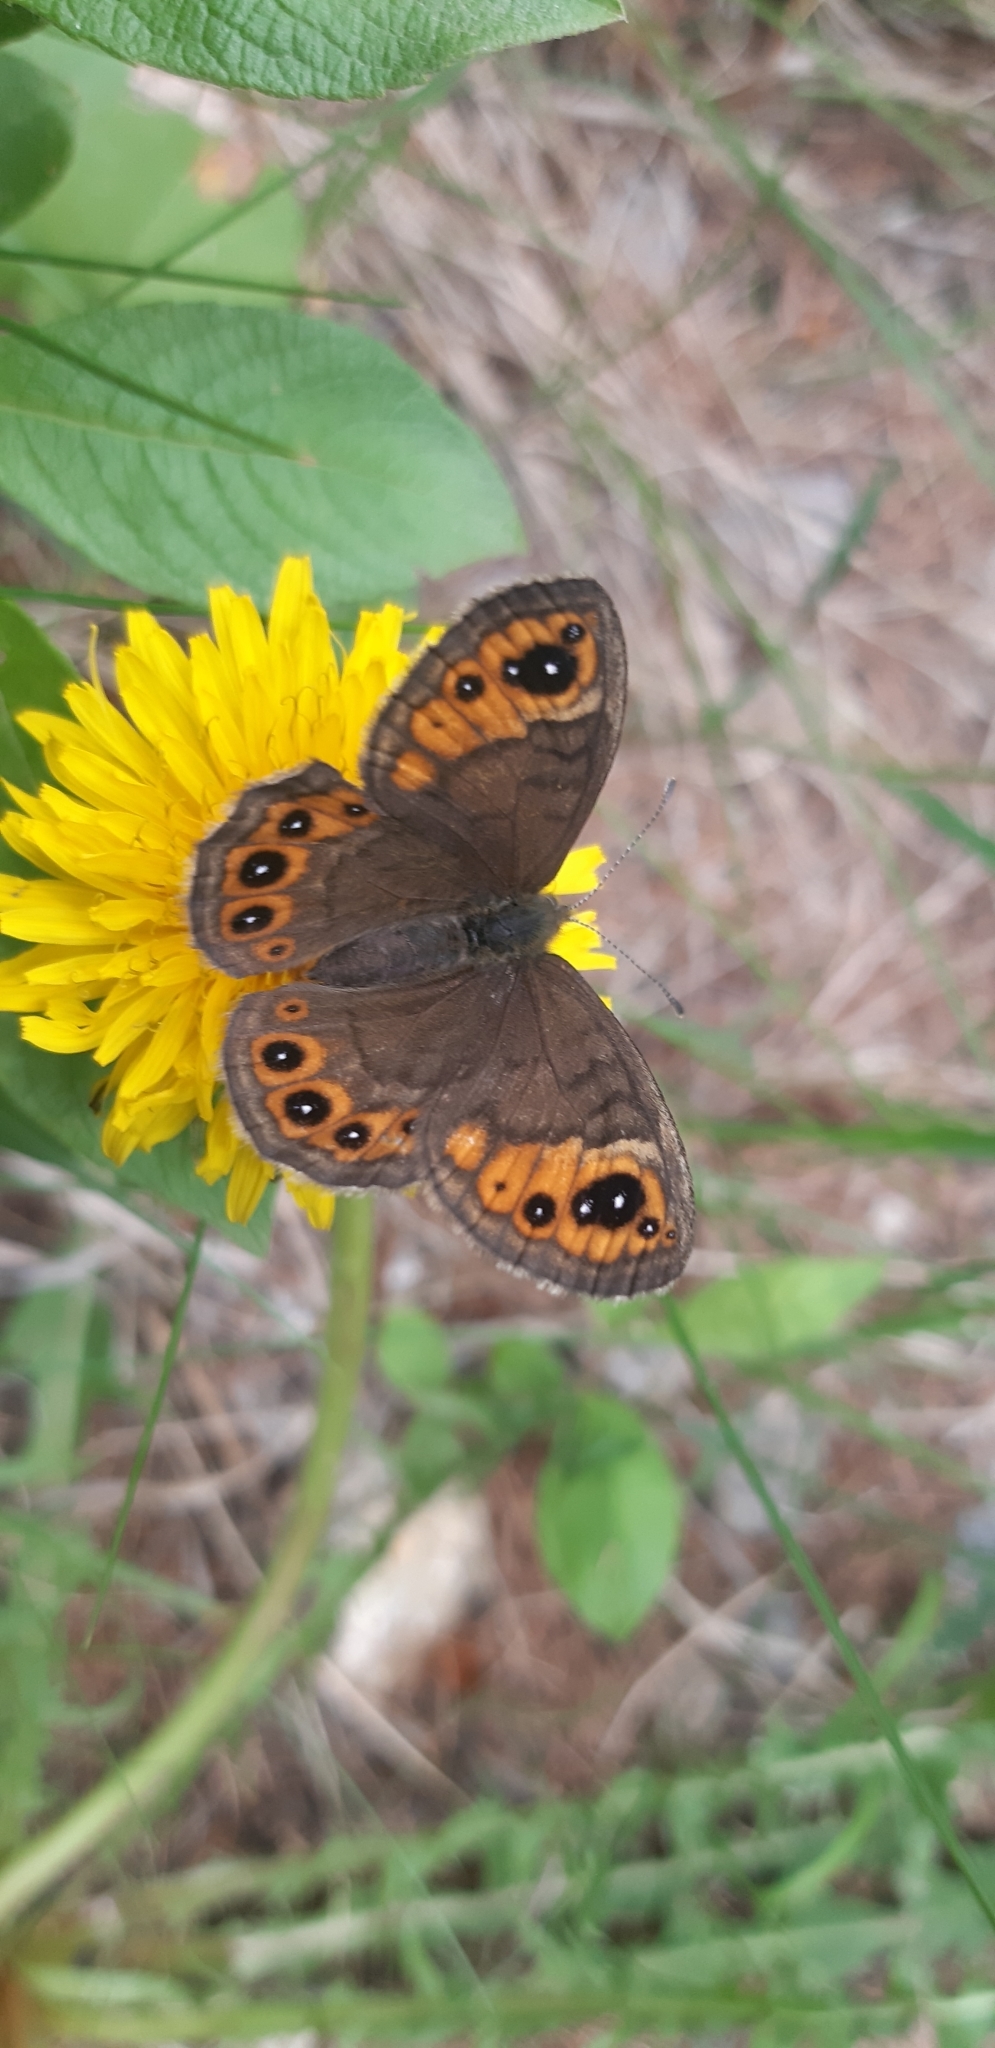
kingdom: Animalia
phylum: Arthropoda
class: Insecta
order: Lepidoptera
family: Nymphalidae
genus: Pararge
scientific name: Pararge petropolitana
